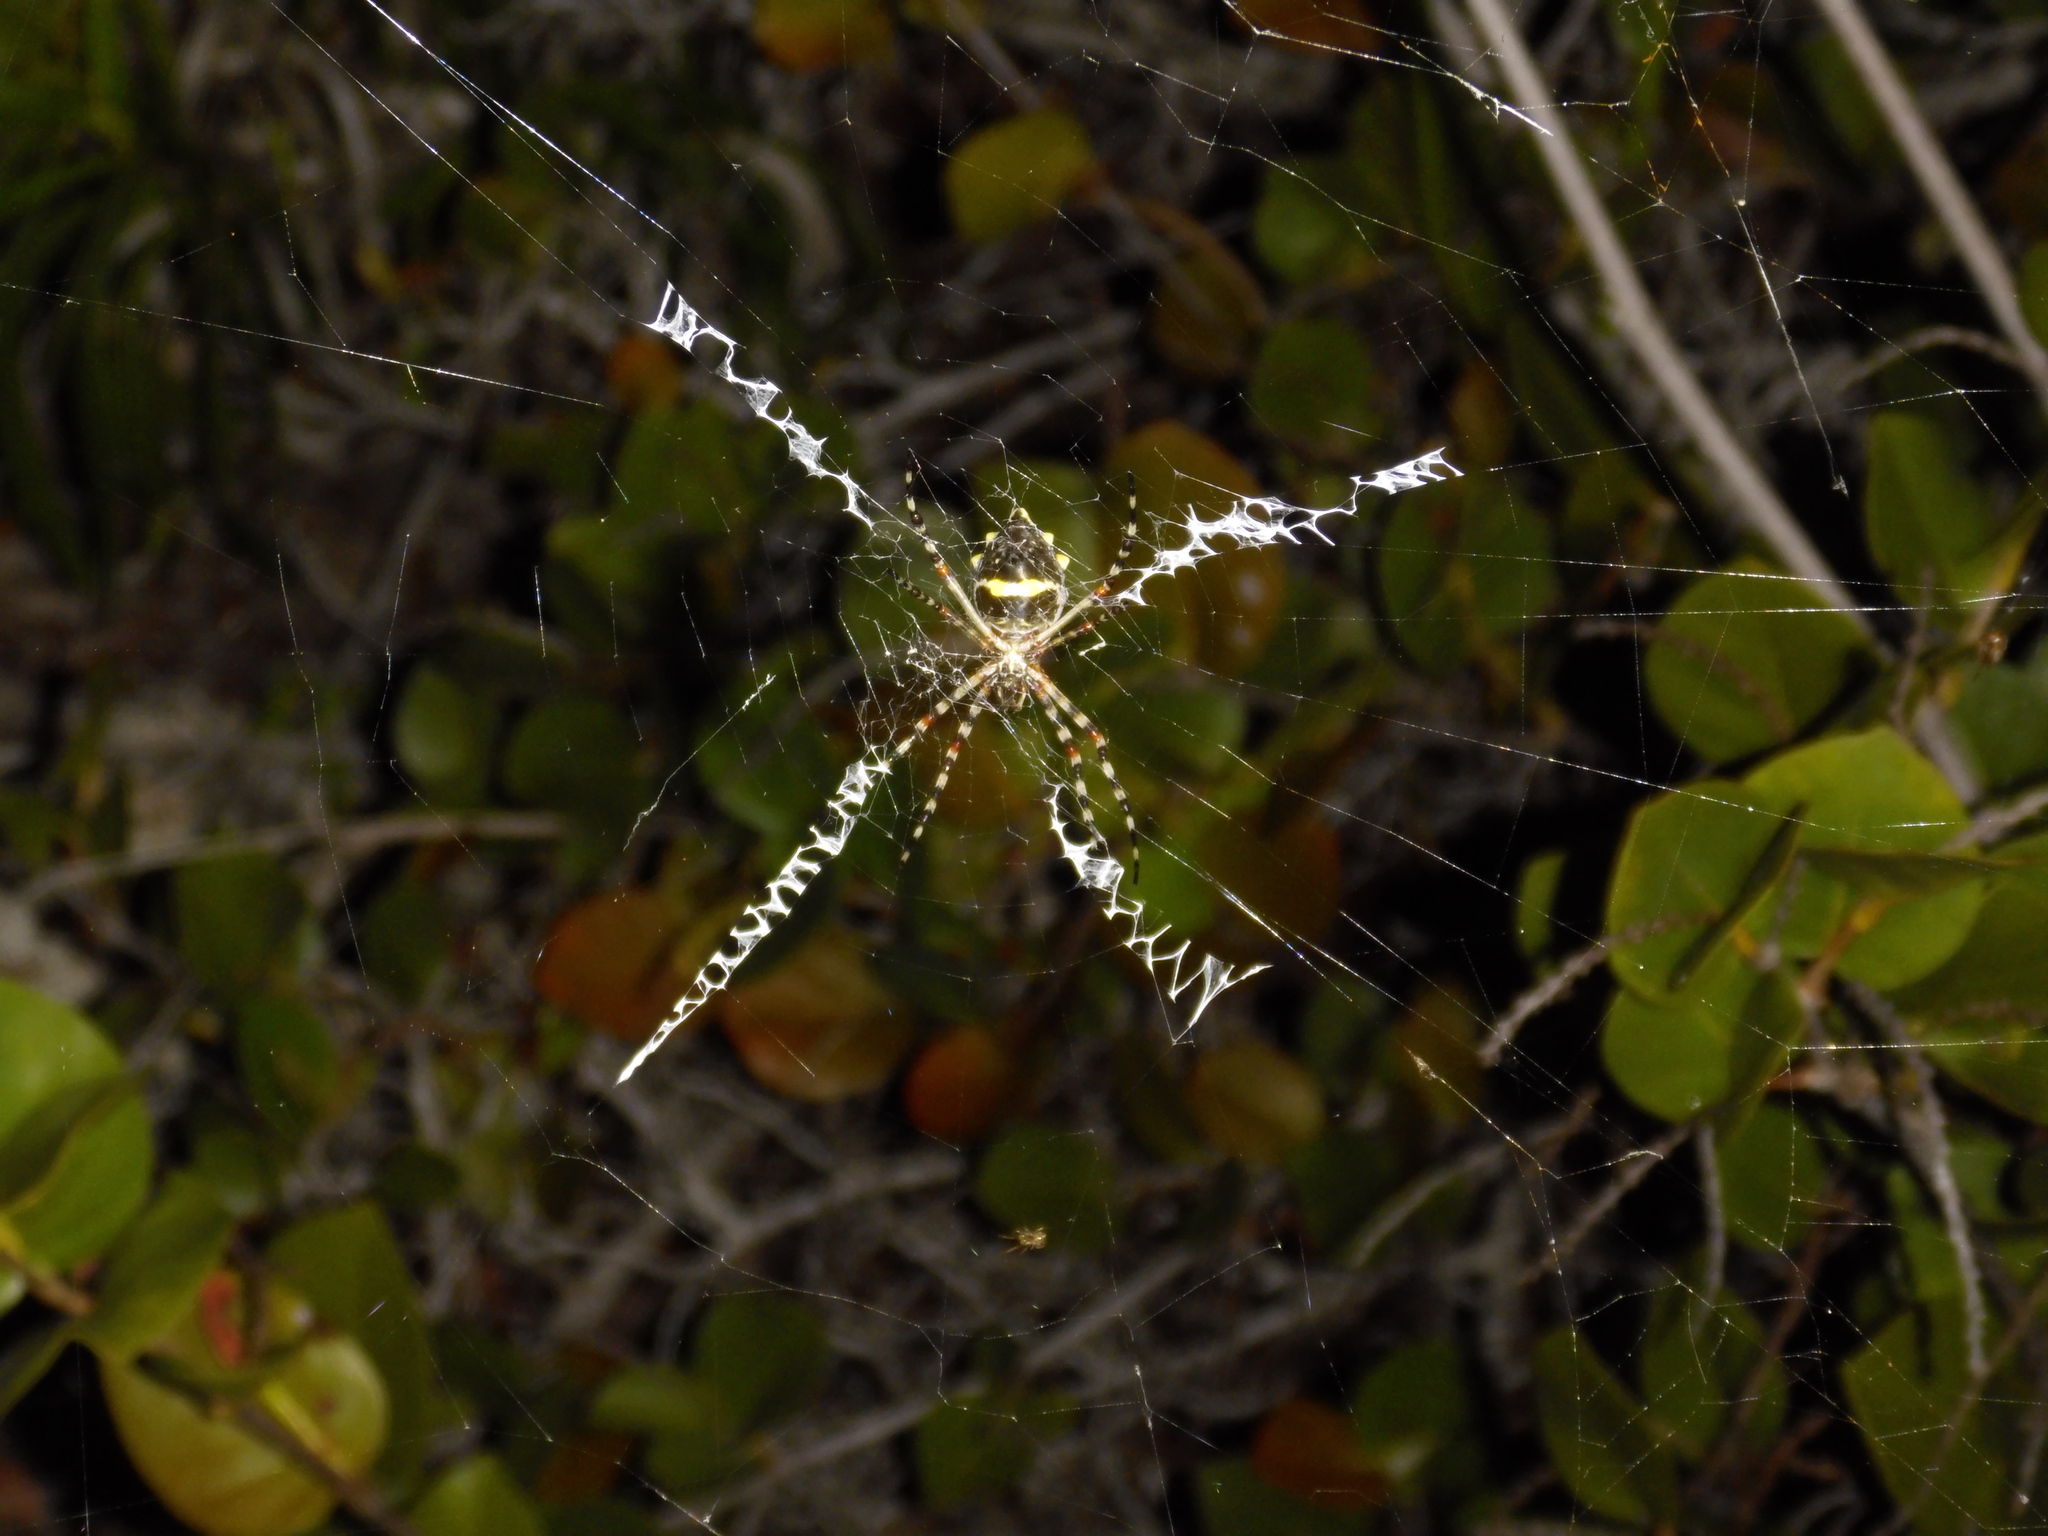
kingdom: Animalia
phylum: Arthropoda
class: Arachnida
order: Araneae
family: Araneidae
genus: Argiope
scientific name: Argiope argentata
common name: Orb weavers
